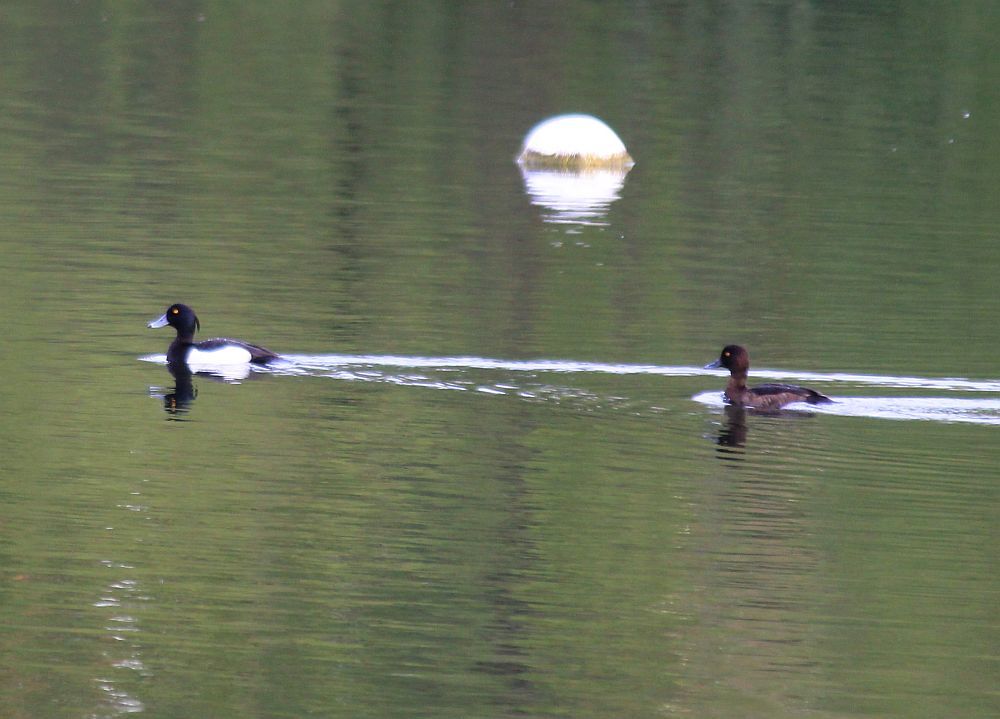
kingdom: Animalia
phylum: Chordata
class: Aves
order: Anseriformes
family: Anatidae
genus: Aythya
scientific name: Aythya fuligula
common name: Tufted duck
